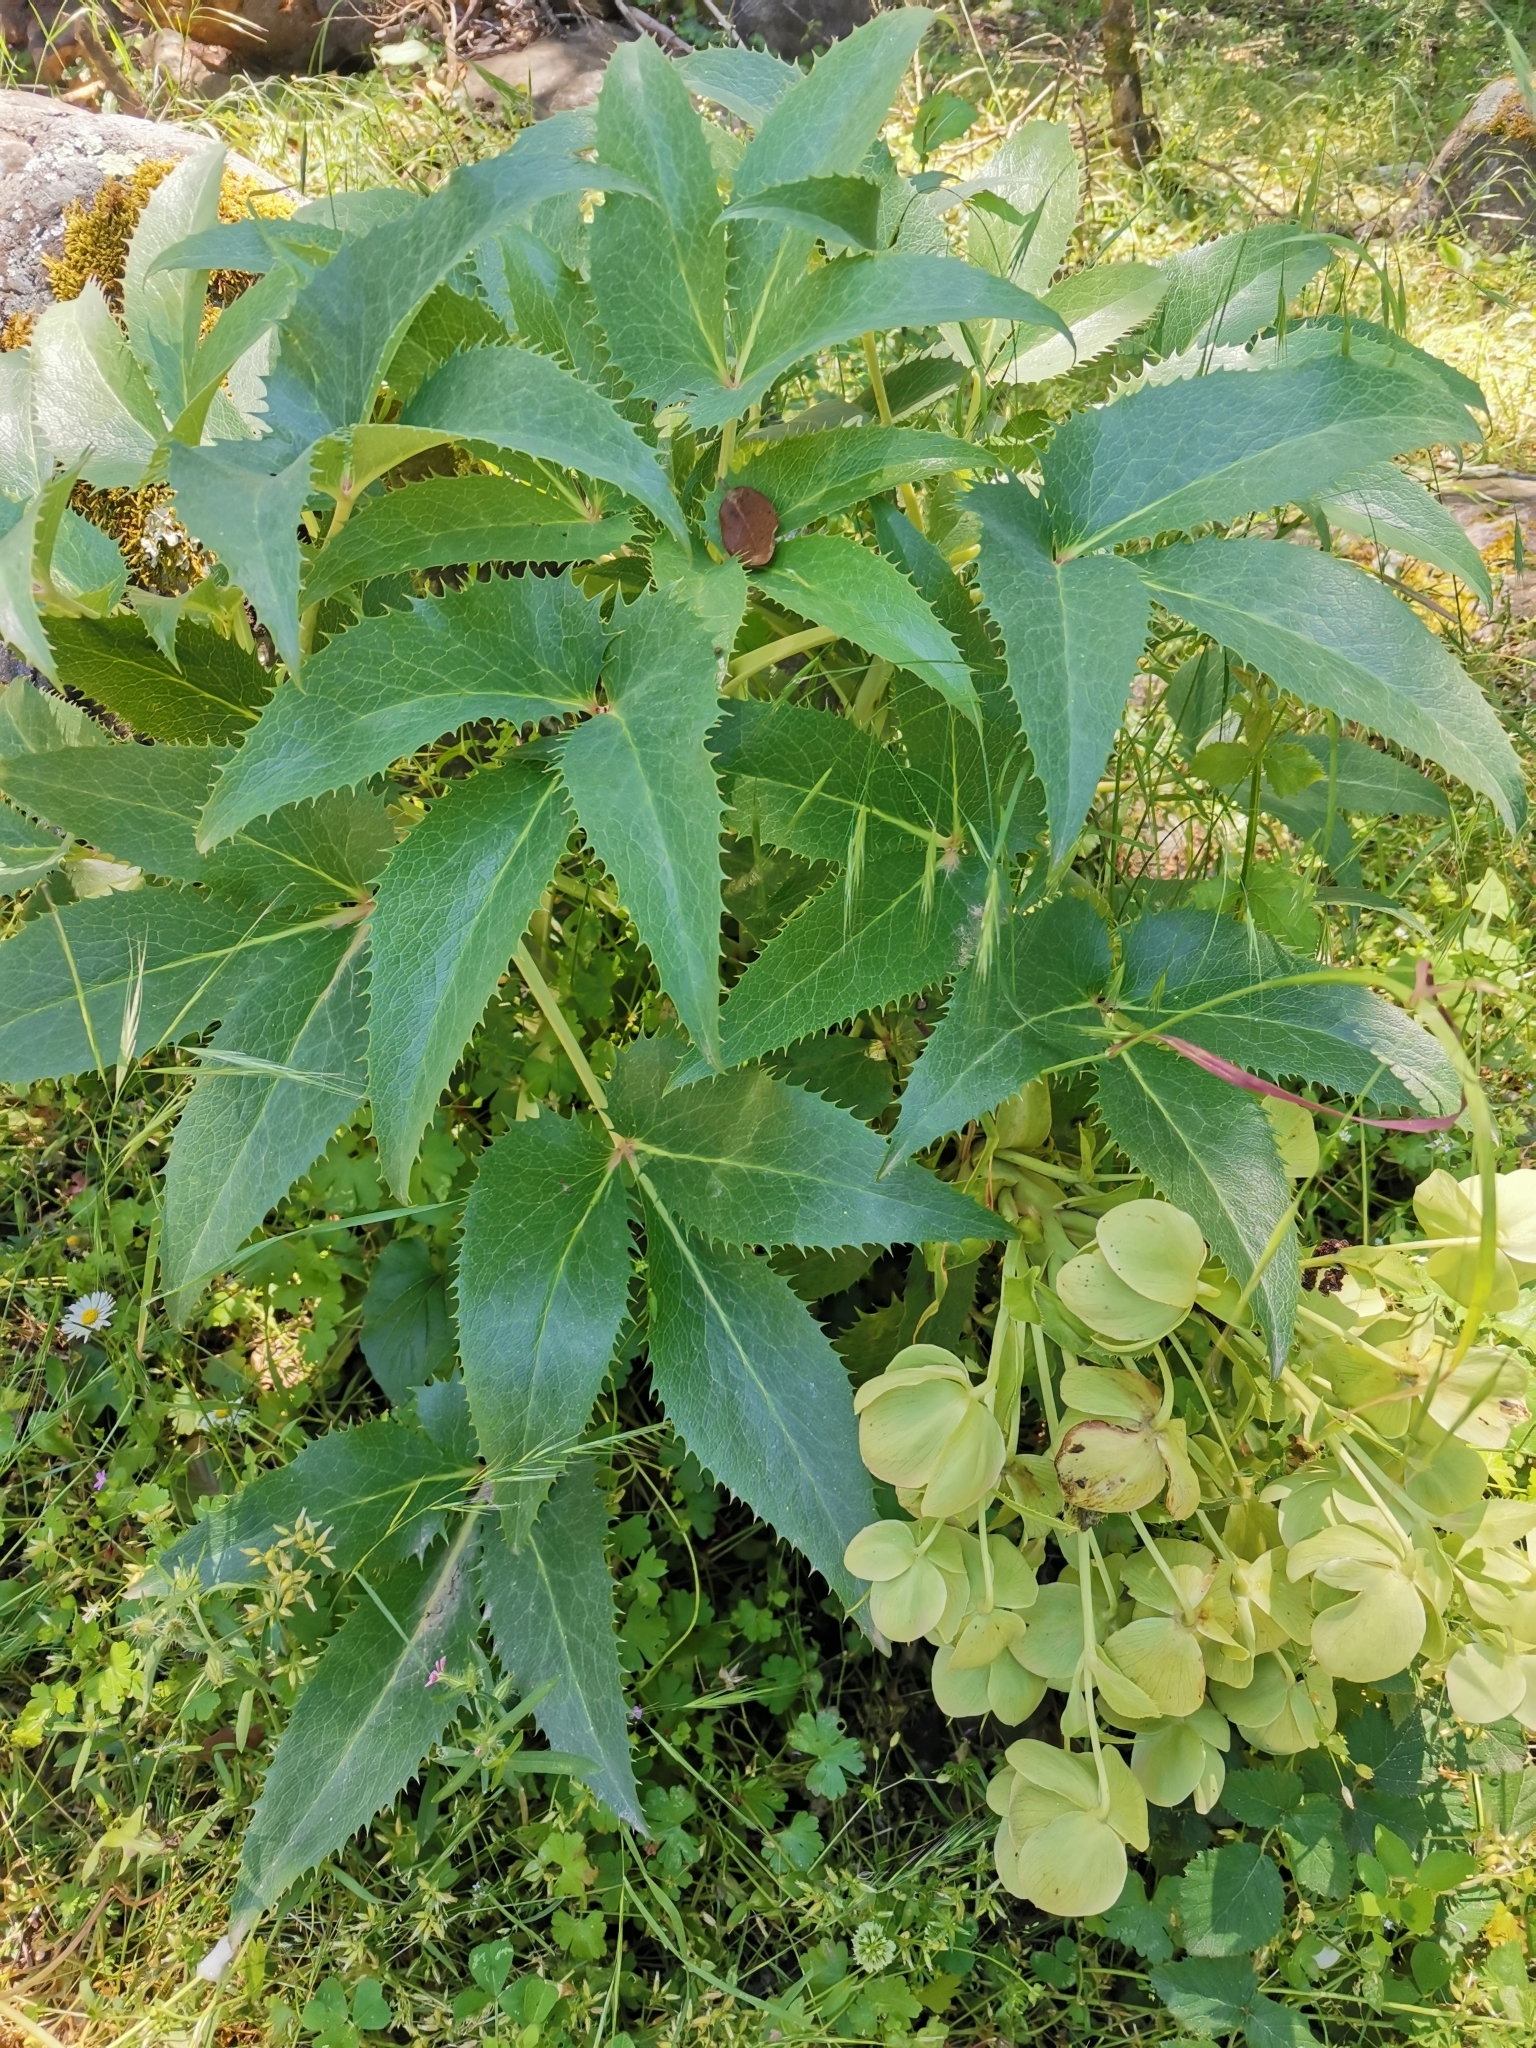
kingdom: Plantae
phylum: Tracheophyta
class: Magnoliopsida
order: Ranunculales
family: Ranunculaceae
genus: Helleborus
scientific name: Helleborus argutifolius
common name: Corsican hellebore
